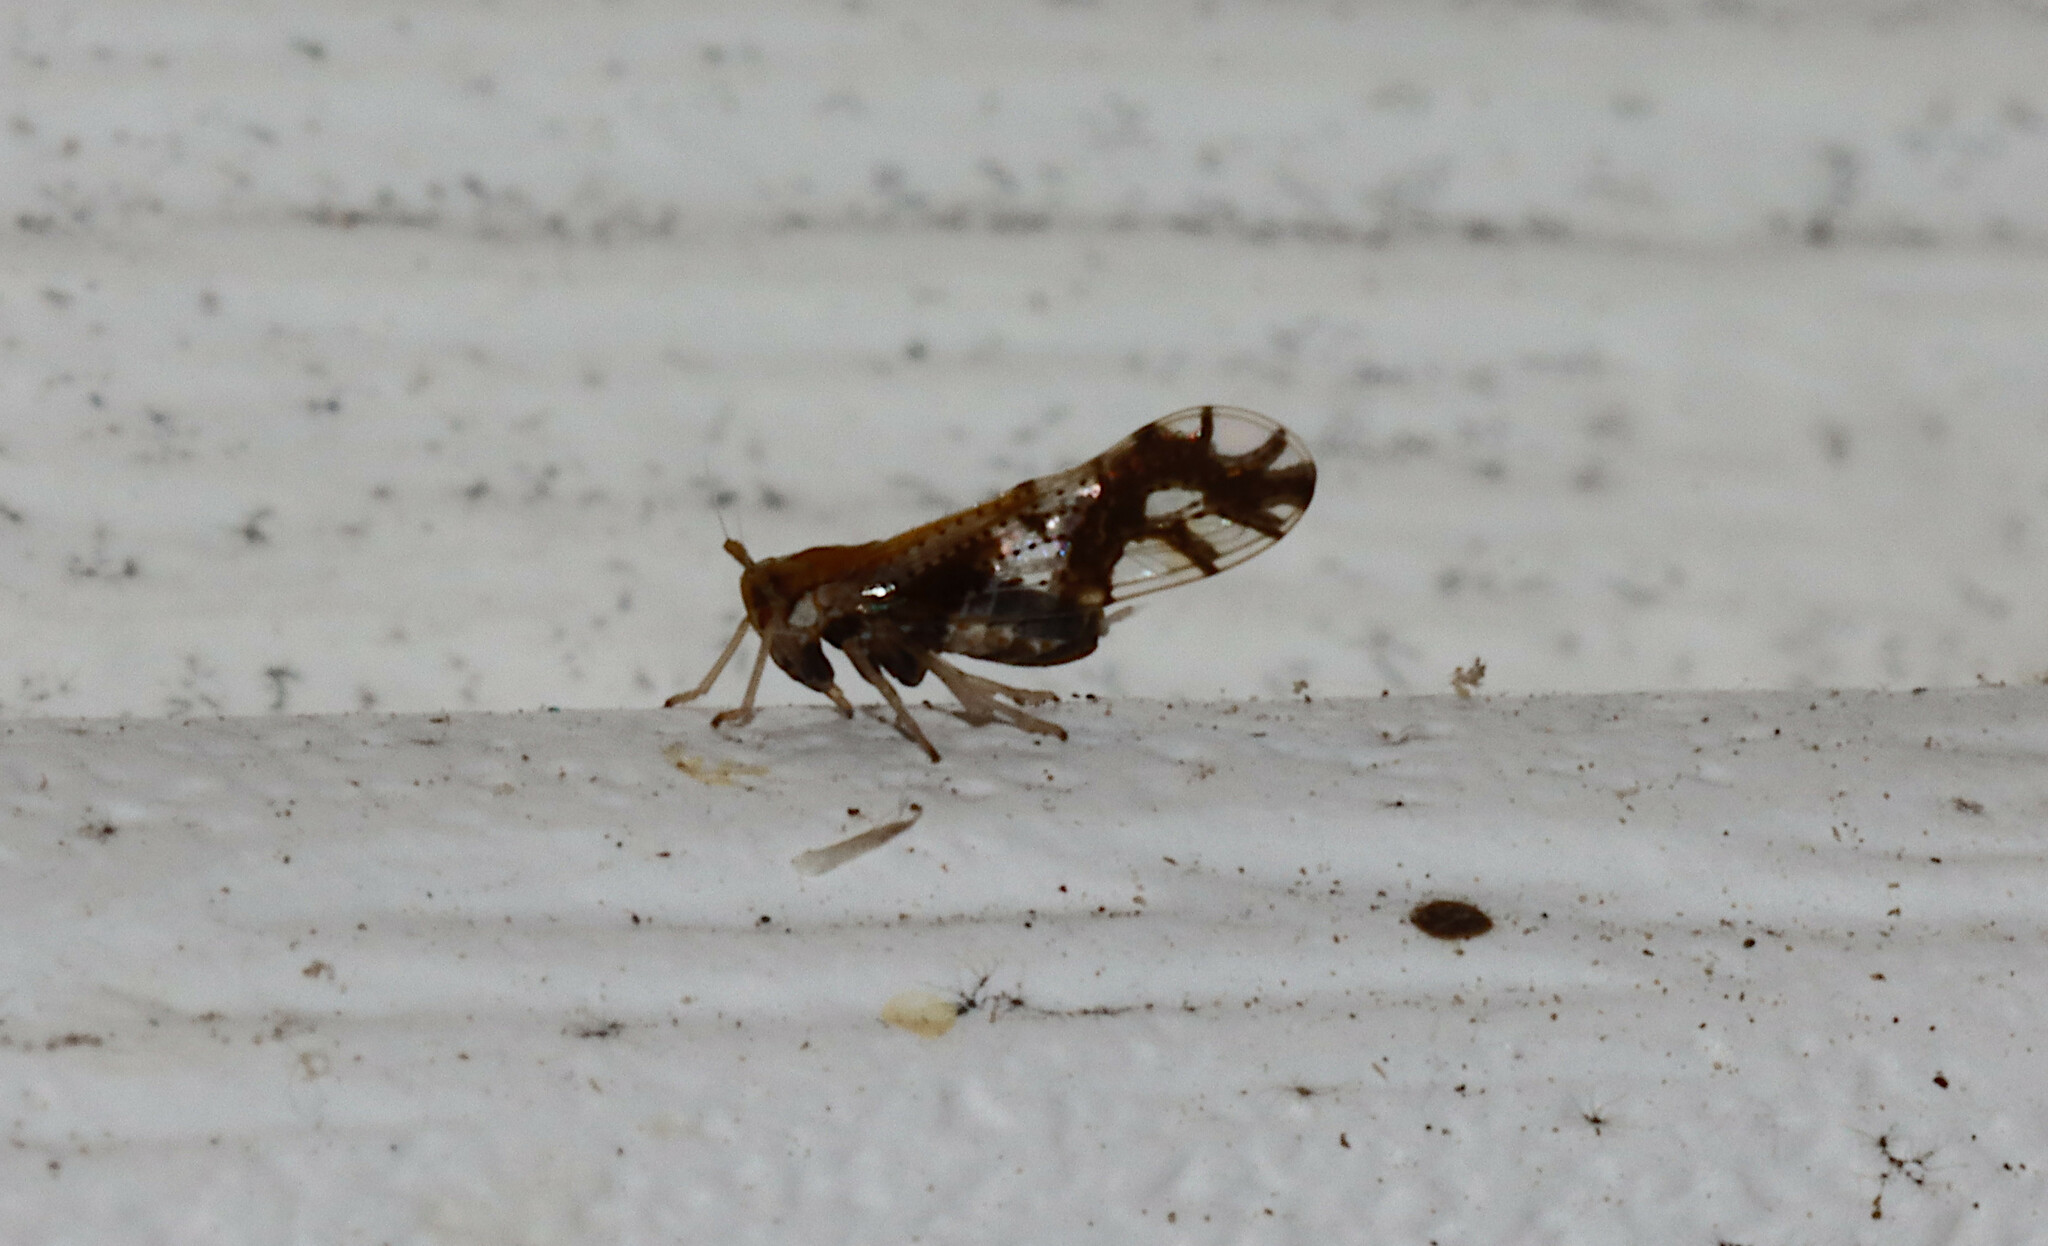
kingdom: Animalia
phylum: Arthropoda
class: Insecta
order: Hemiptera
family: Delphacidae
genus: Liburniella
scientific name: Liburniella ornata
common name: Ornate planthopper
